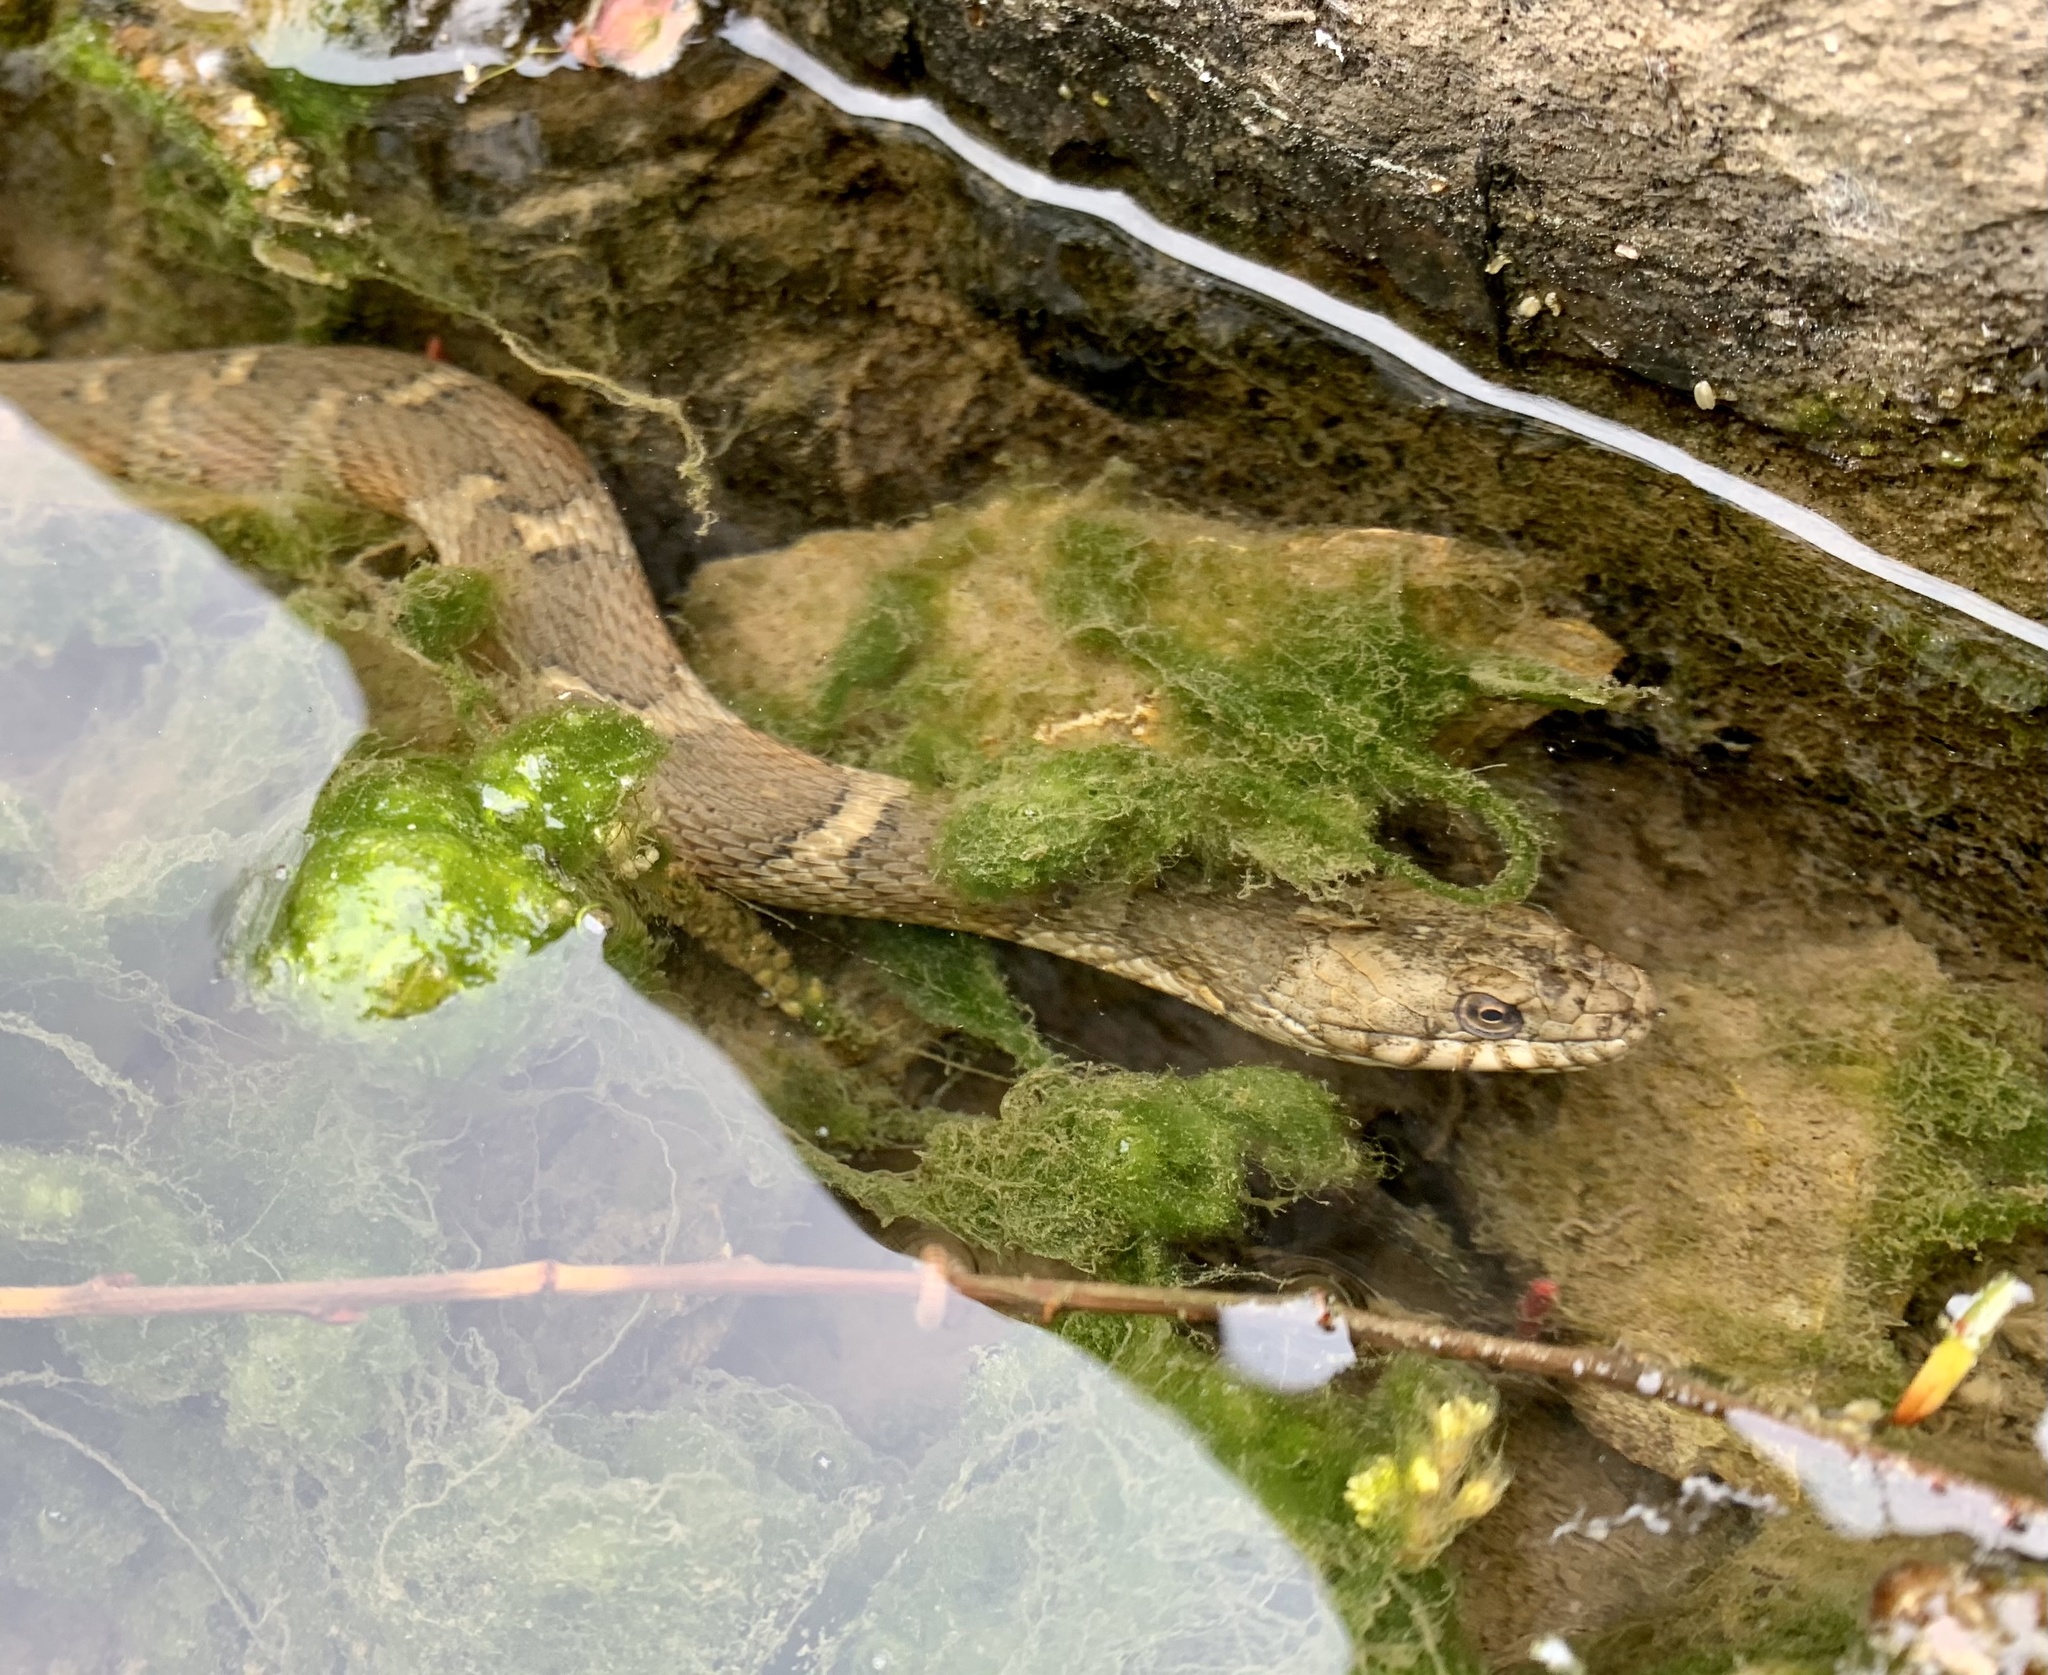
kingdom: Animalia
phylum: Chordata
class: Squamata
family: Colubridae
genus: Nerodia
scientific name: Nerodia sipedon
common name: Northern water snake
